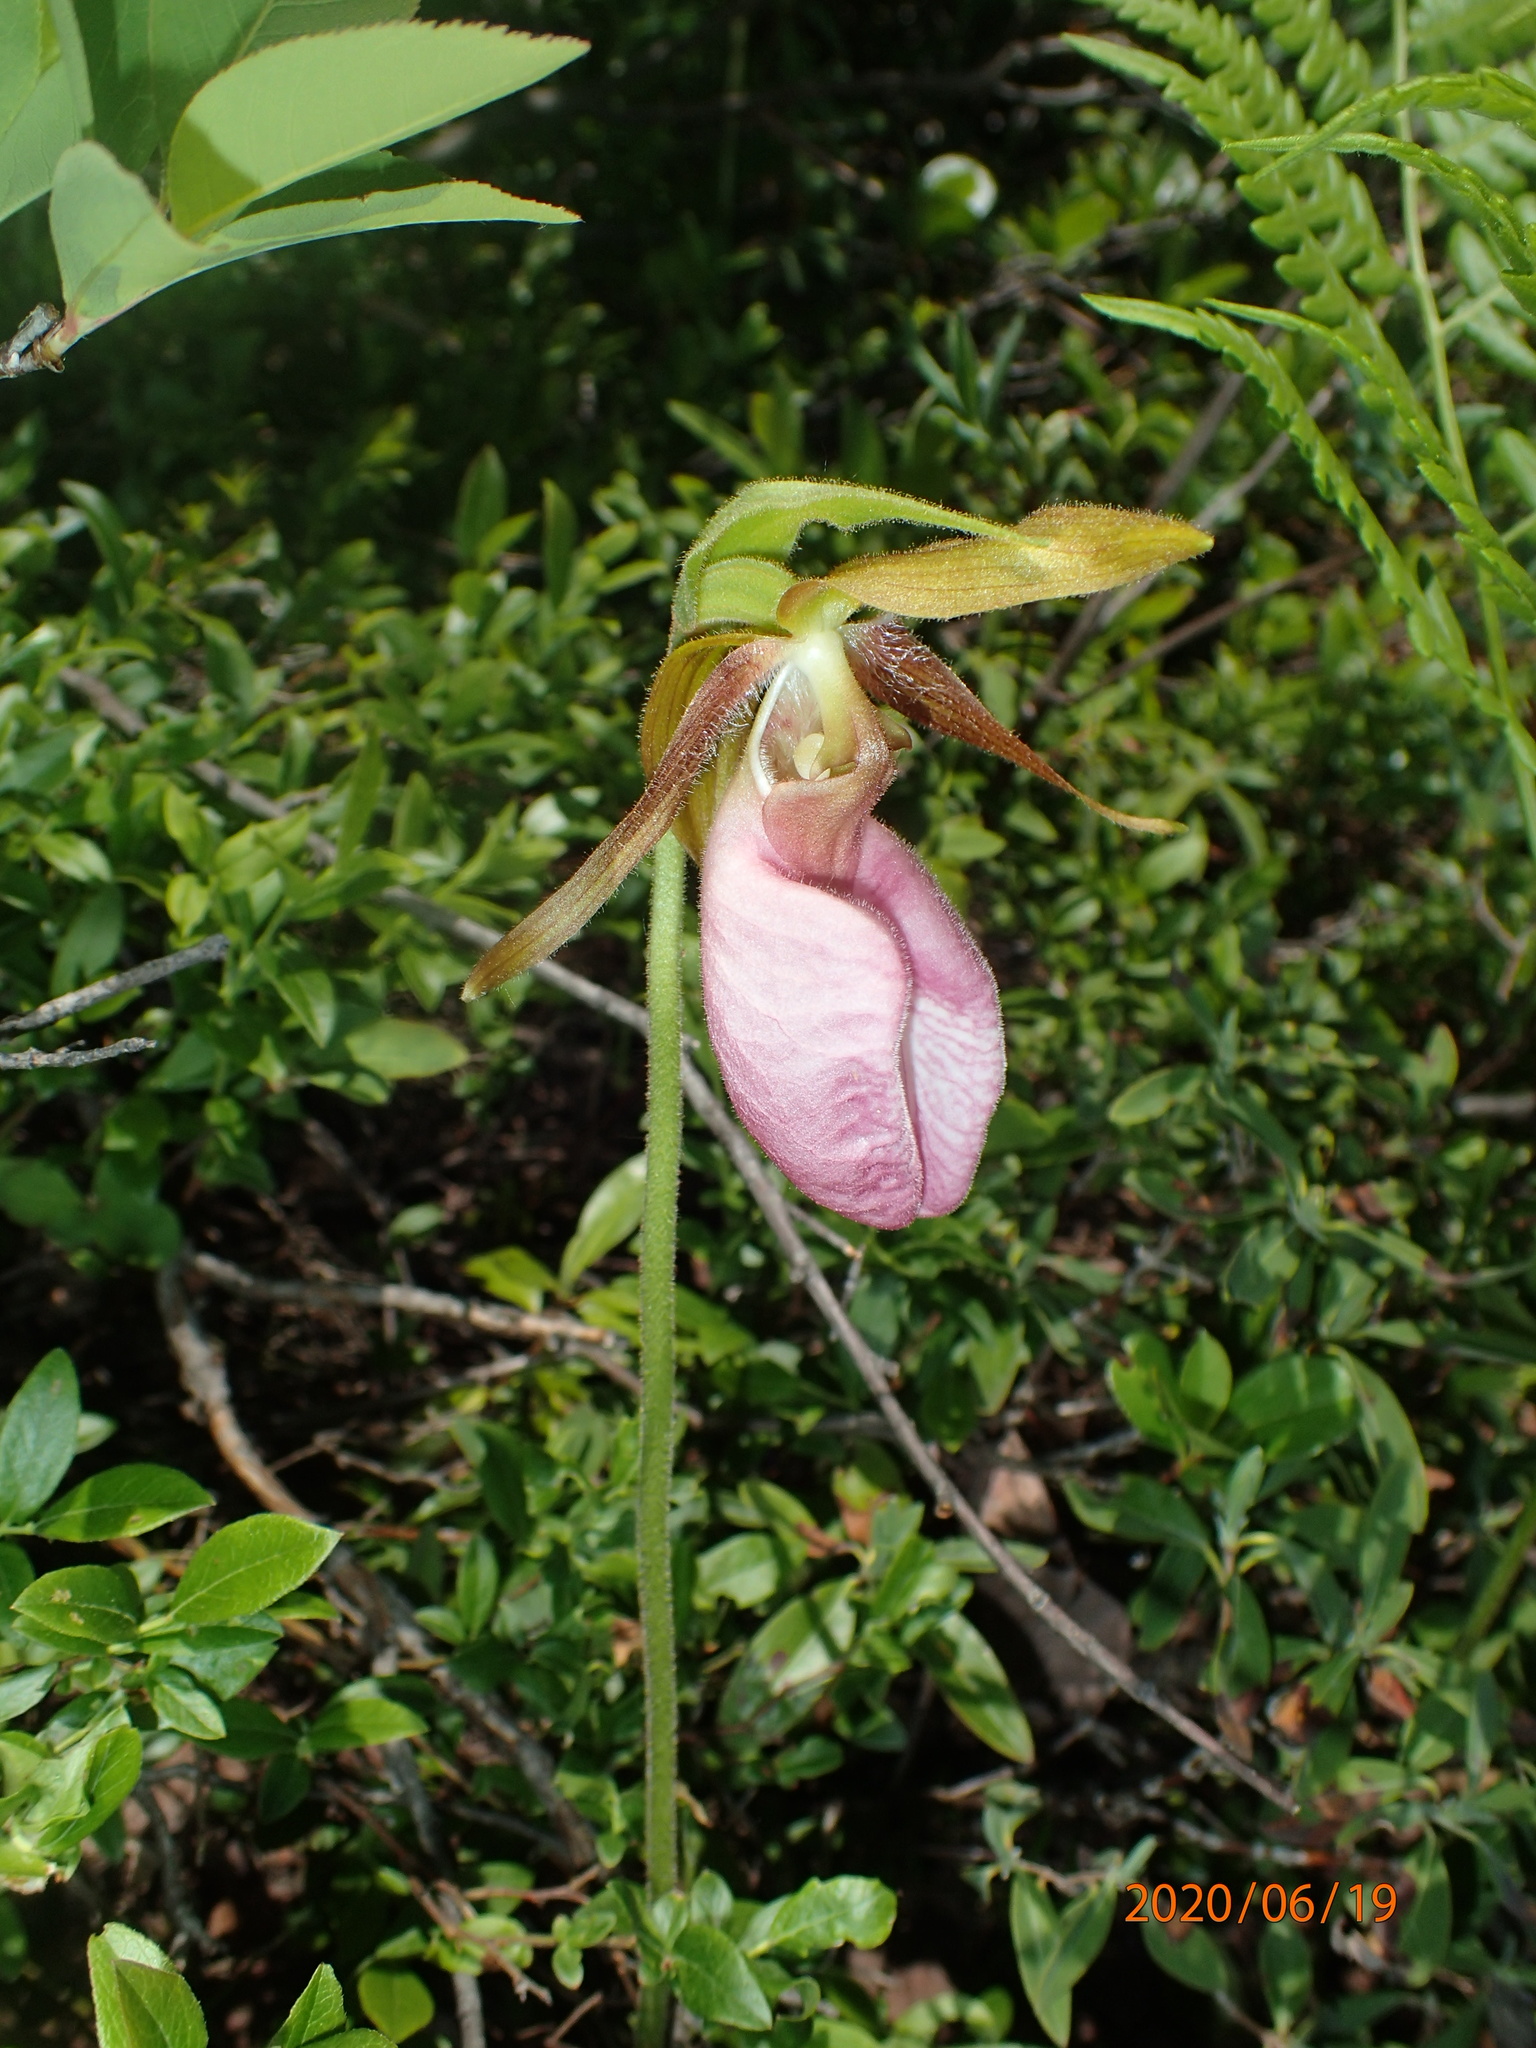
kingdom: Plantae
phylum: Tracheophyta
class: Liliopsida
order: Asparagales
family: Orchidaceae
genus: Cypripedium
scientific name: Cypripedium acaule
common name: Pink lady's-slipper
